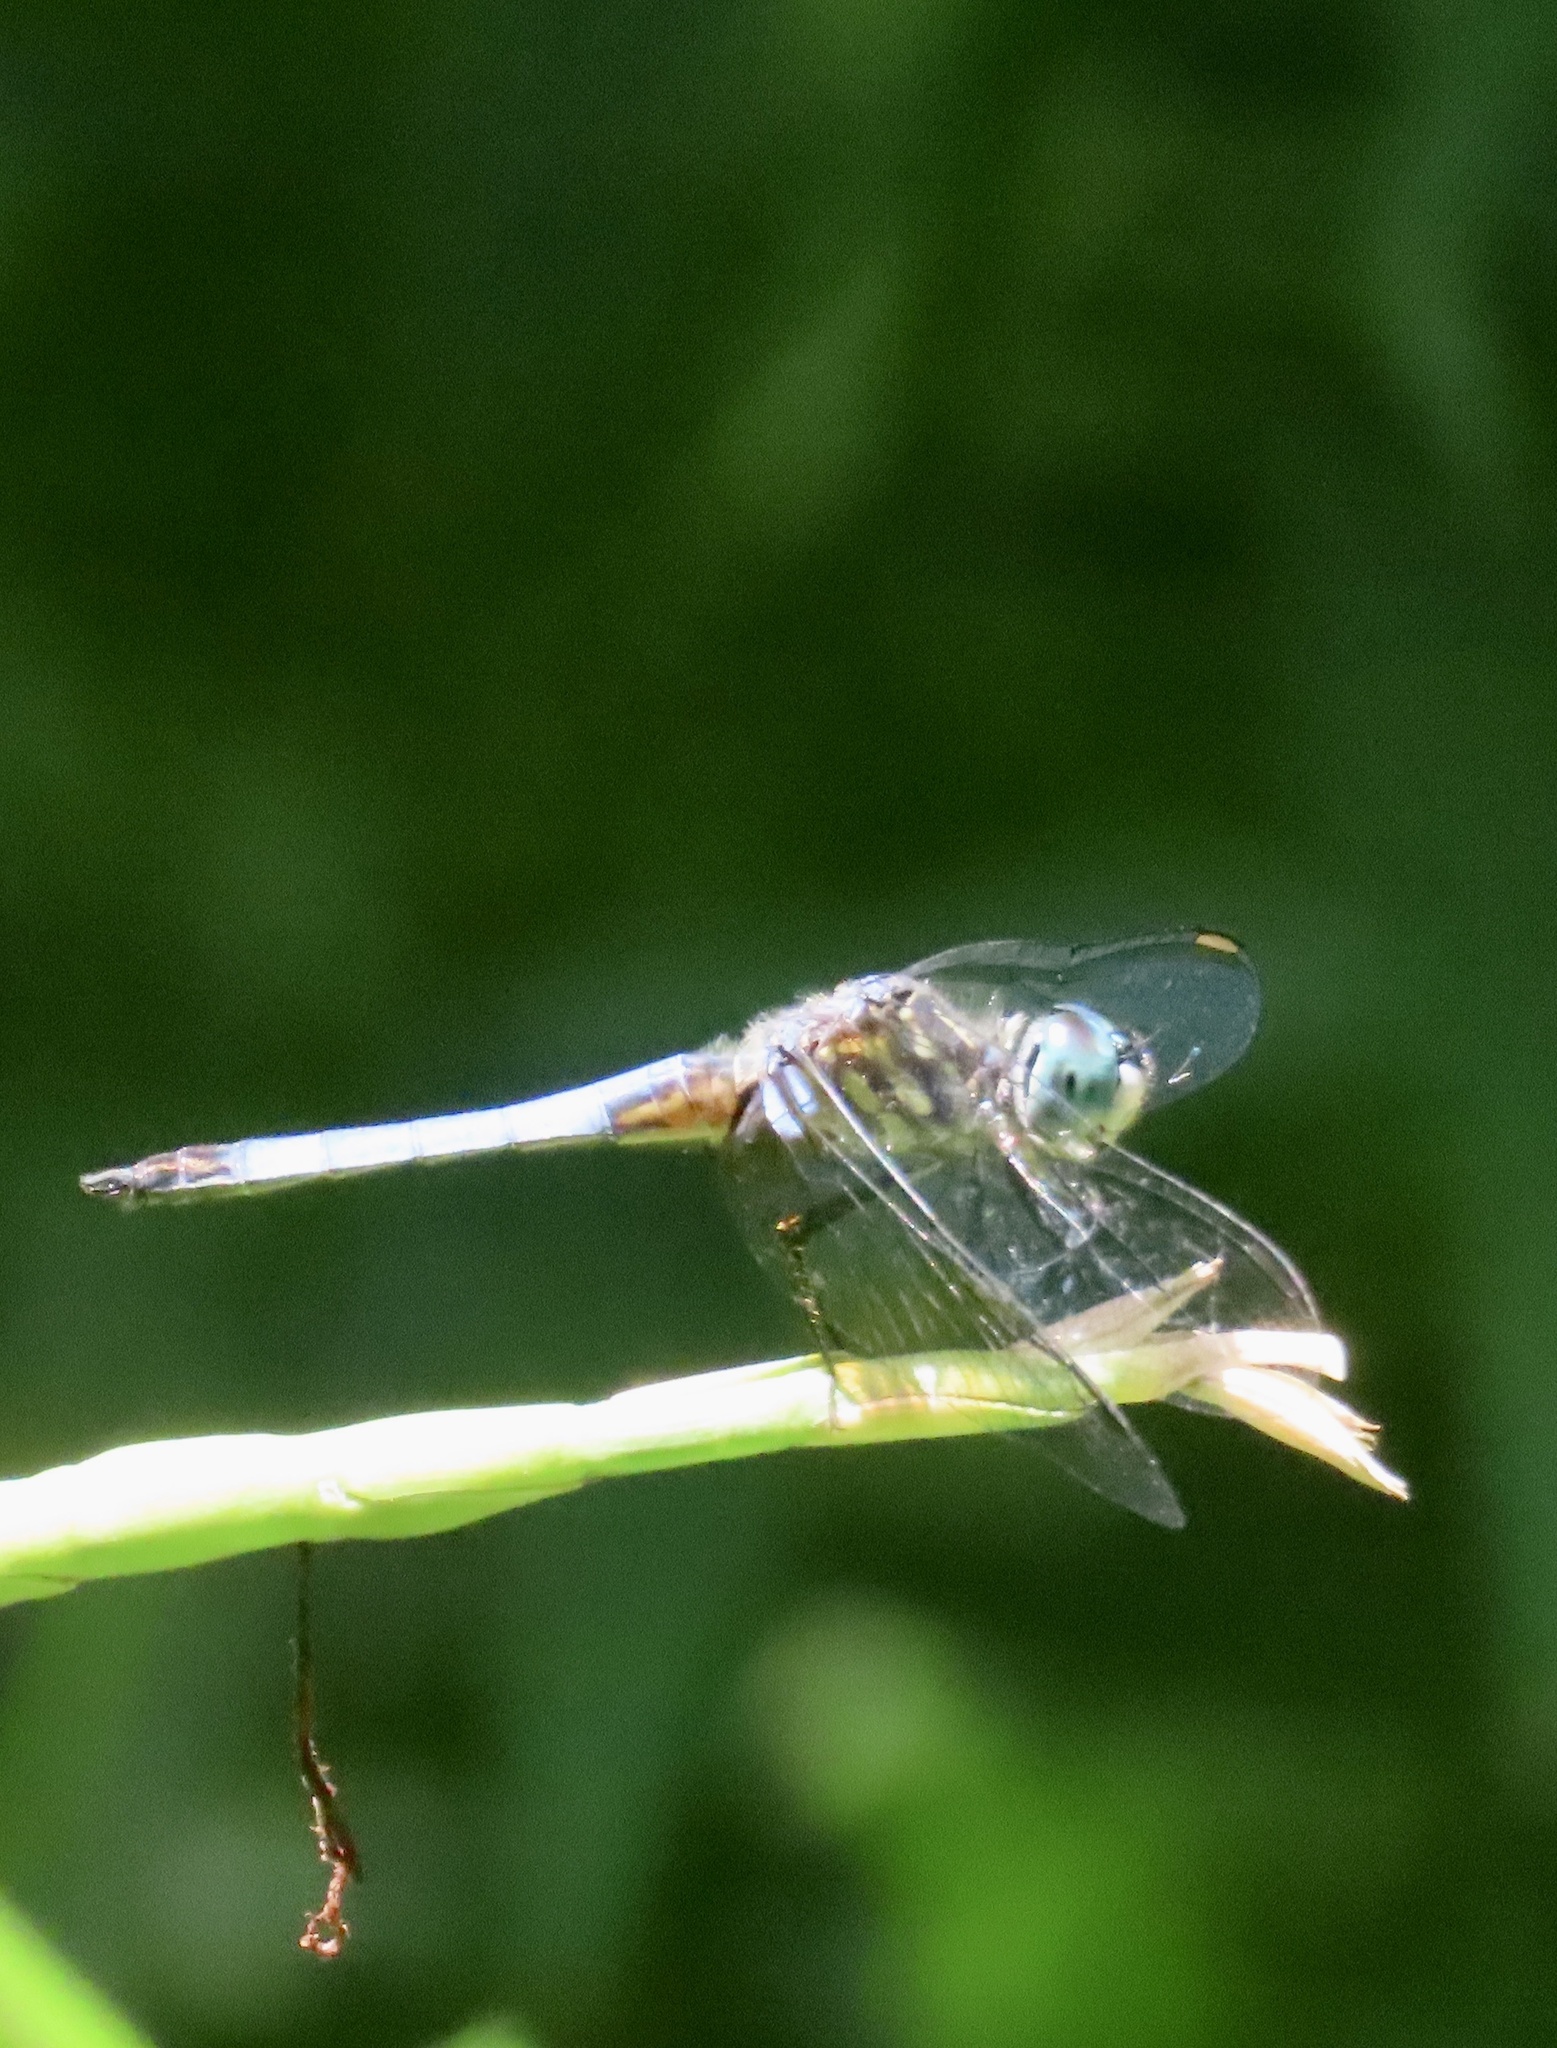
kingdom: Animalia
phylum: Arthropoda
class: Insecta
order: Odonata
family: Libellulidae
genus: Pachydiplax
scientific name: Pachydiplax longipennis
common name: Blue dasher
